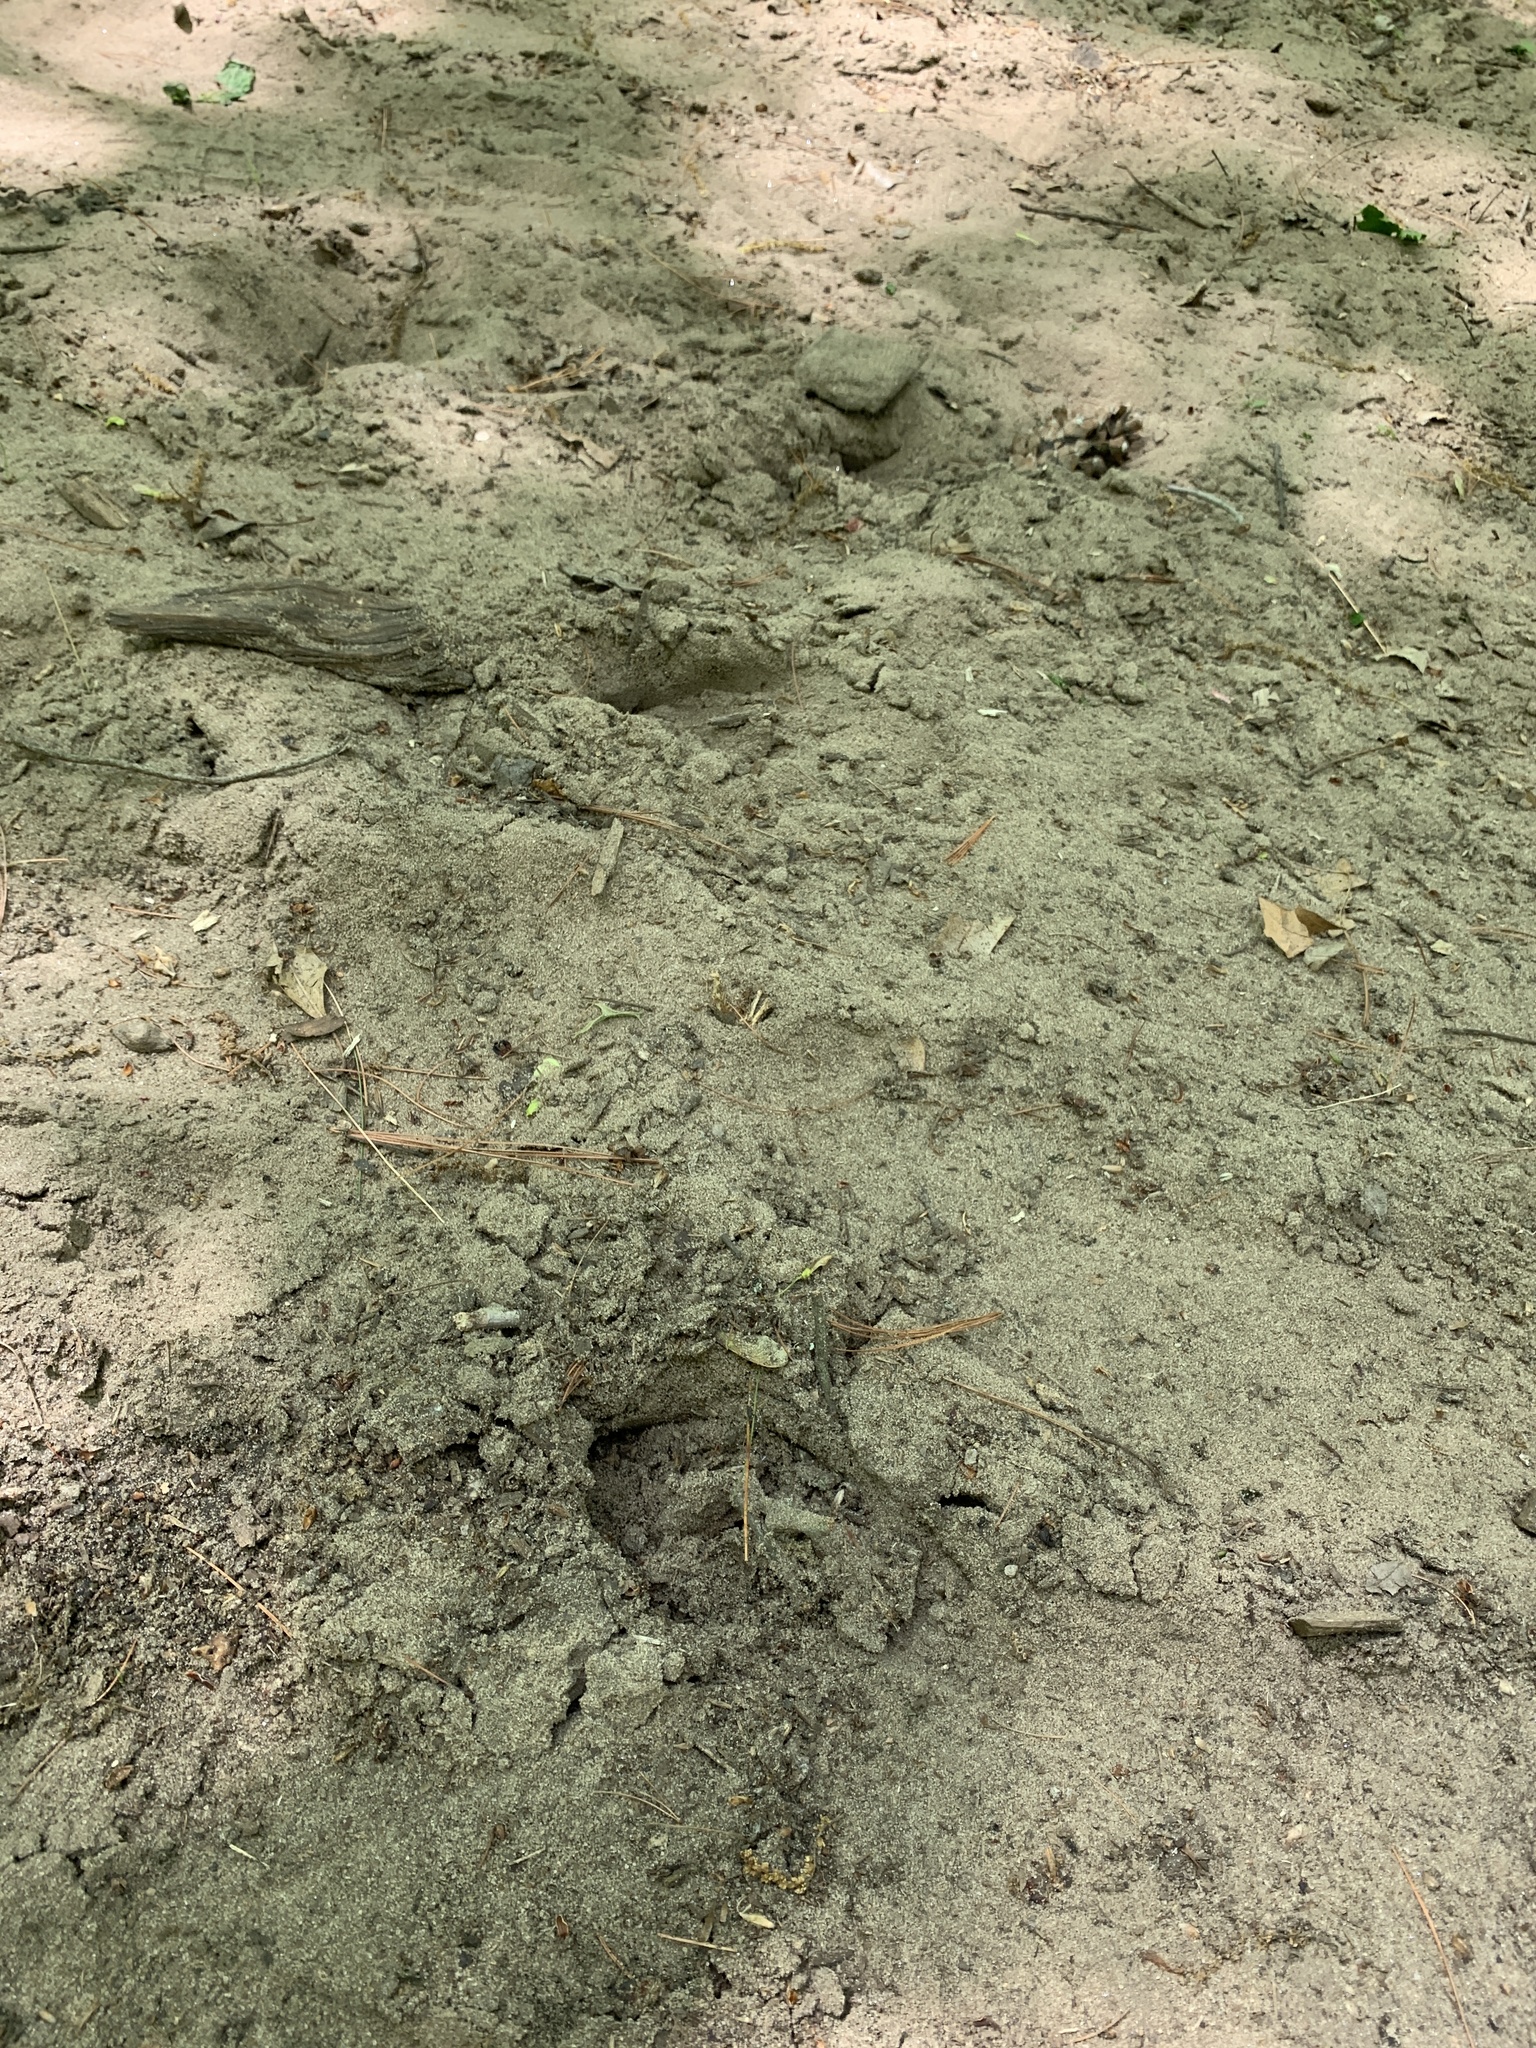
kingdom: Animalia
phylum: Chordata
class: Mammalia
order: Artiodactyla
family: Cervidae
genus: Odocoileus
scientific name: Odocoileus virginianus
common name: White-tailed deer
